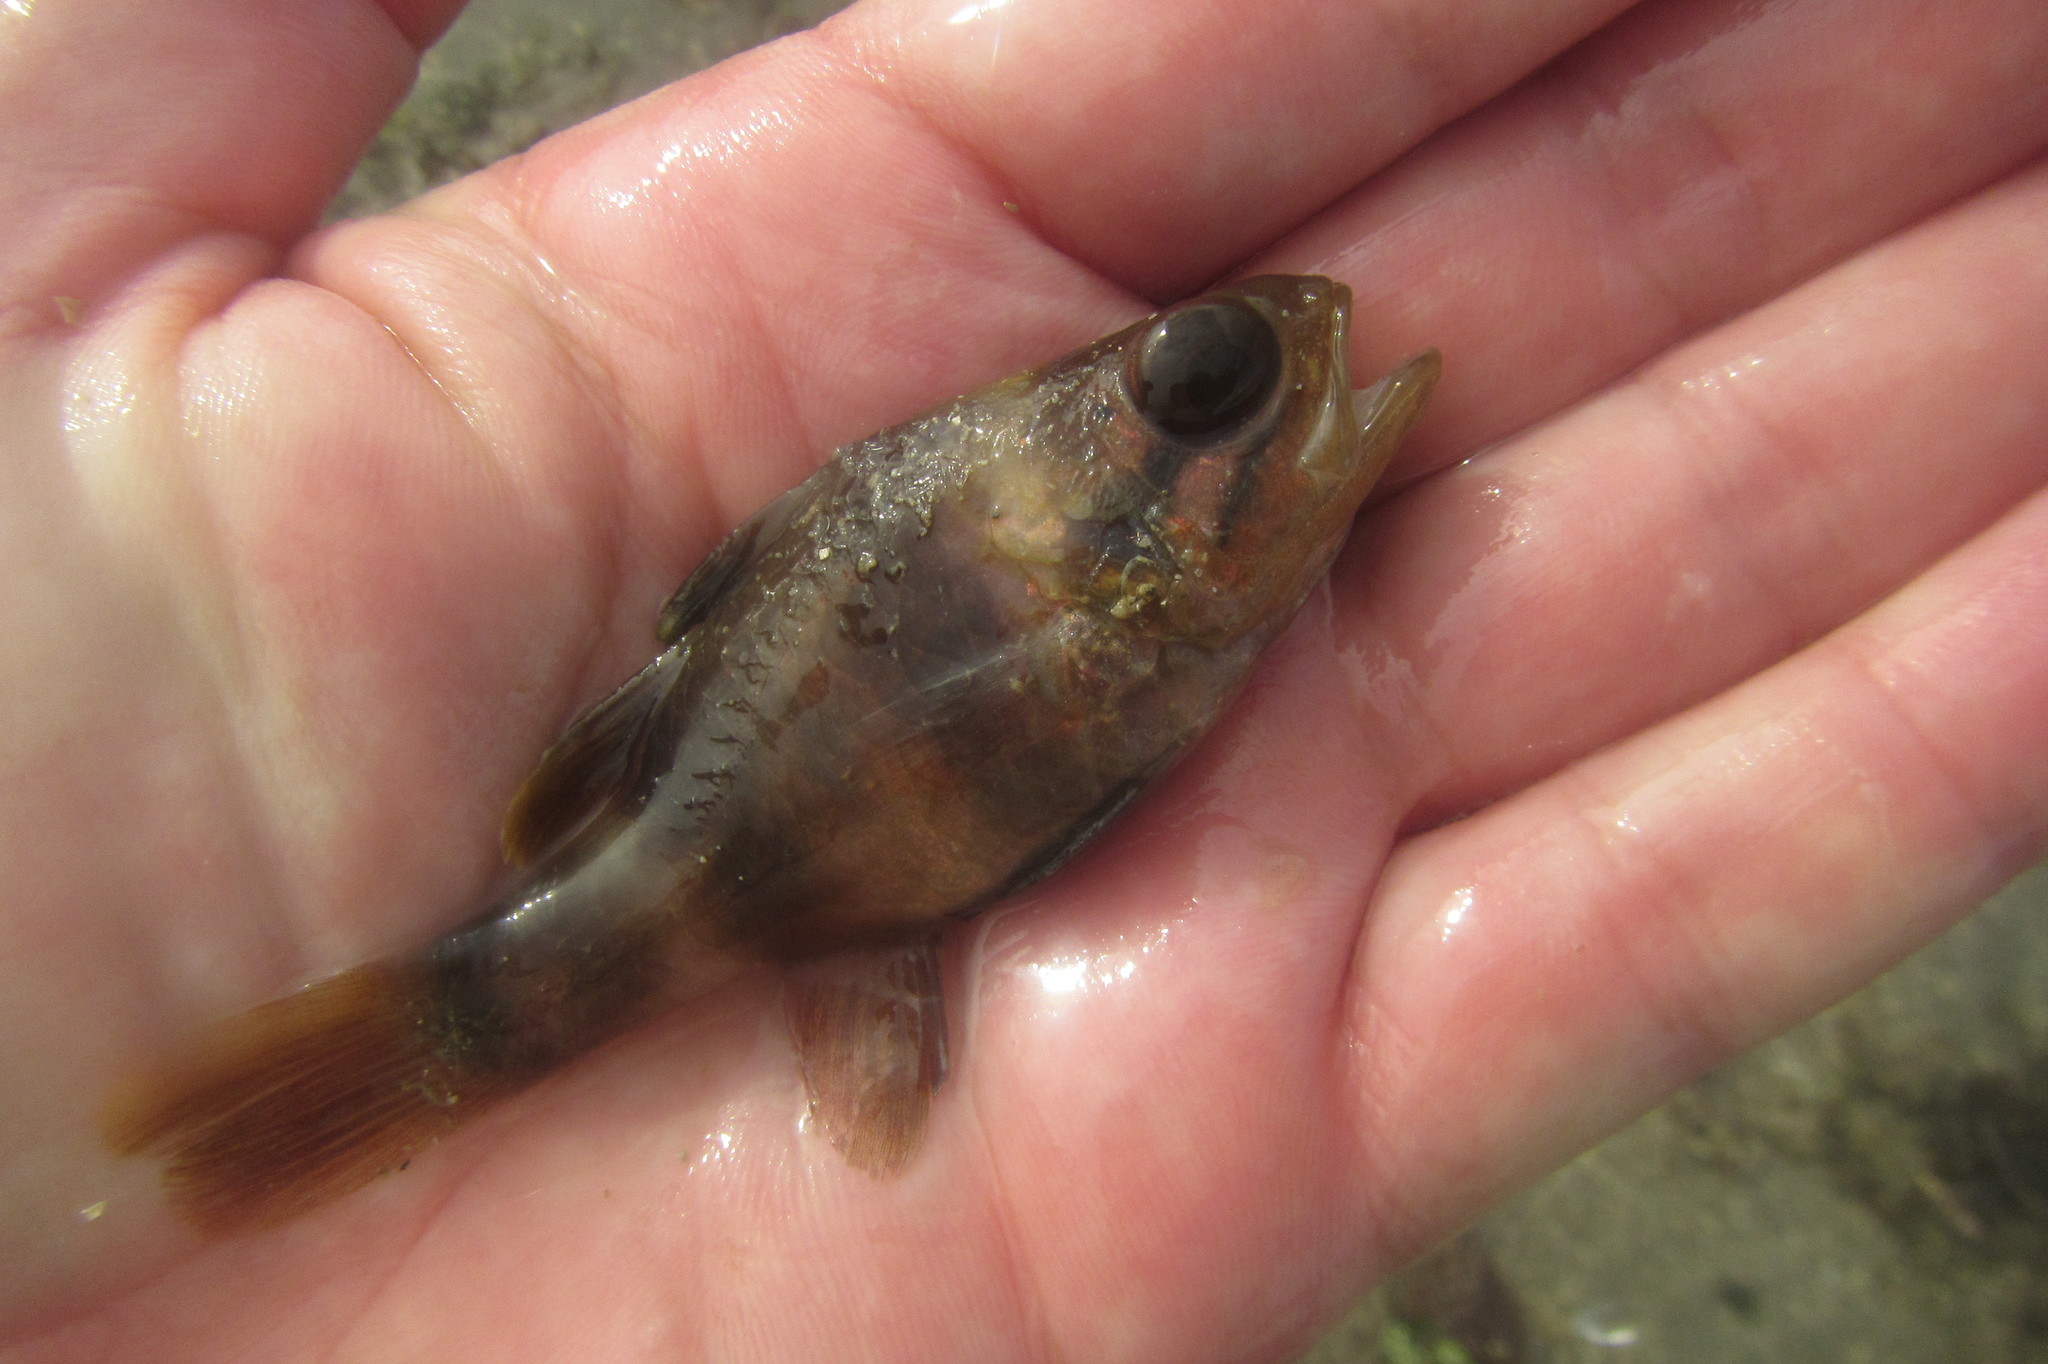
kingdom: Animalia
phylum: Chordata
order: Perciformes
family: Apogonidae
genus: Apogonichthyoides
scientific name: Apogonichthyoides timorensis
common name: Timor cardinal
